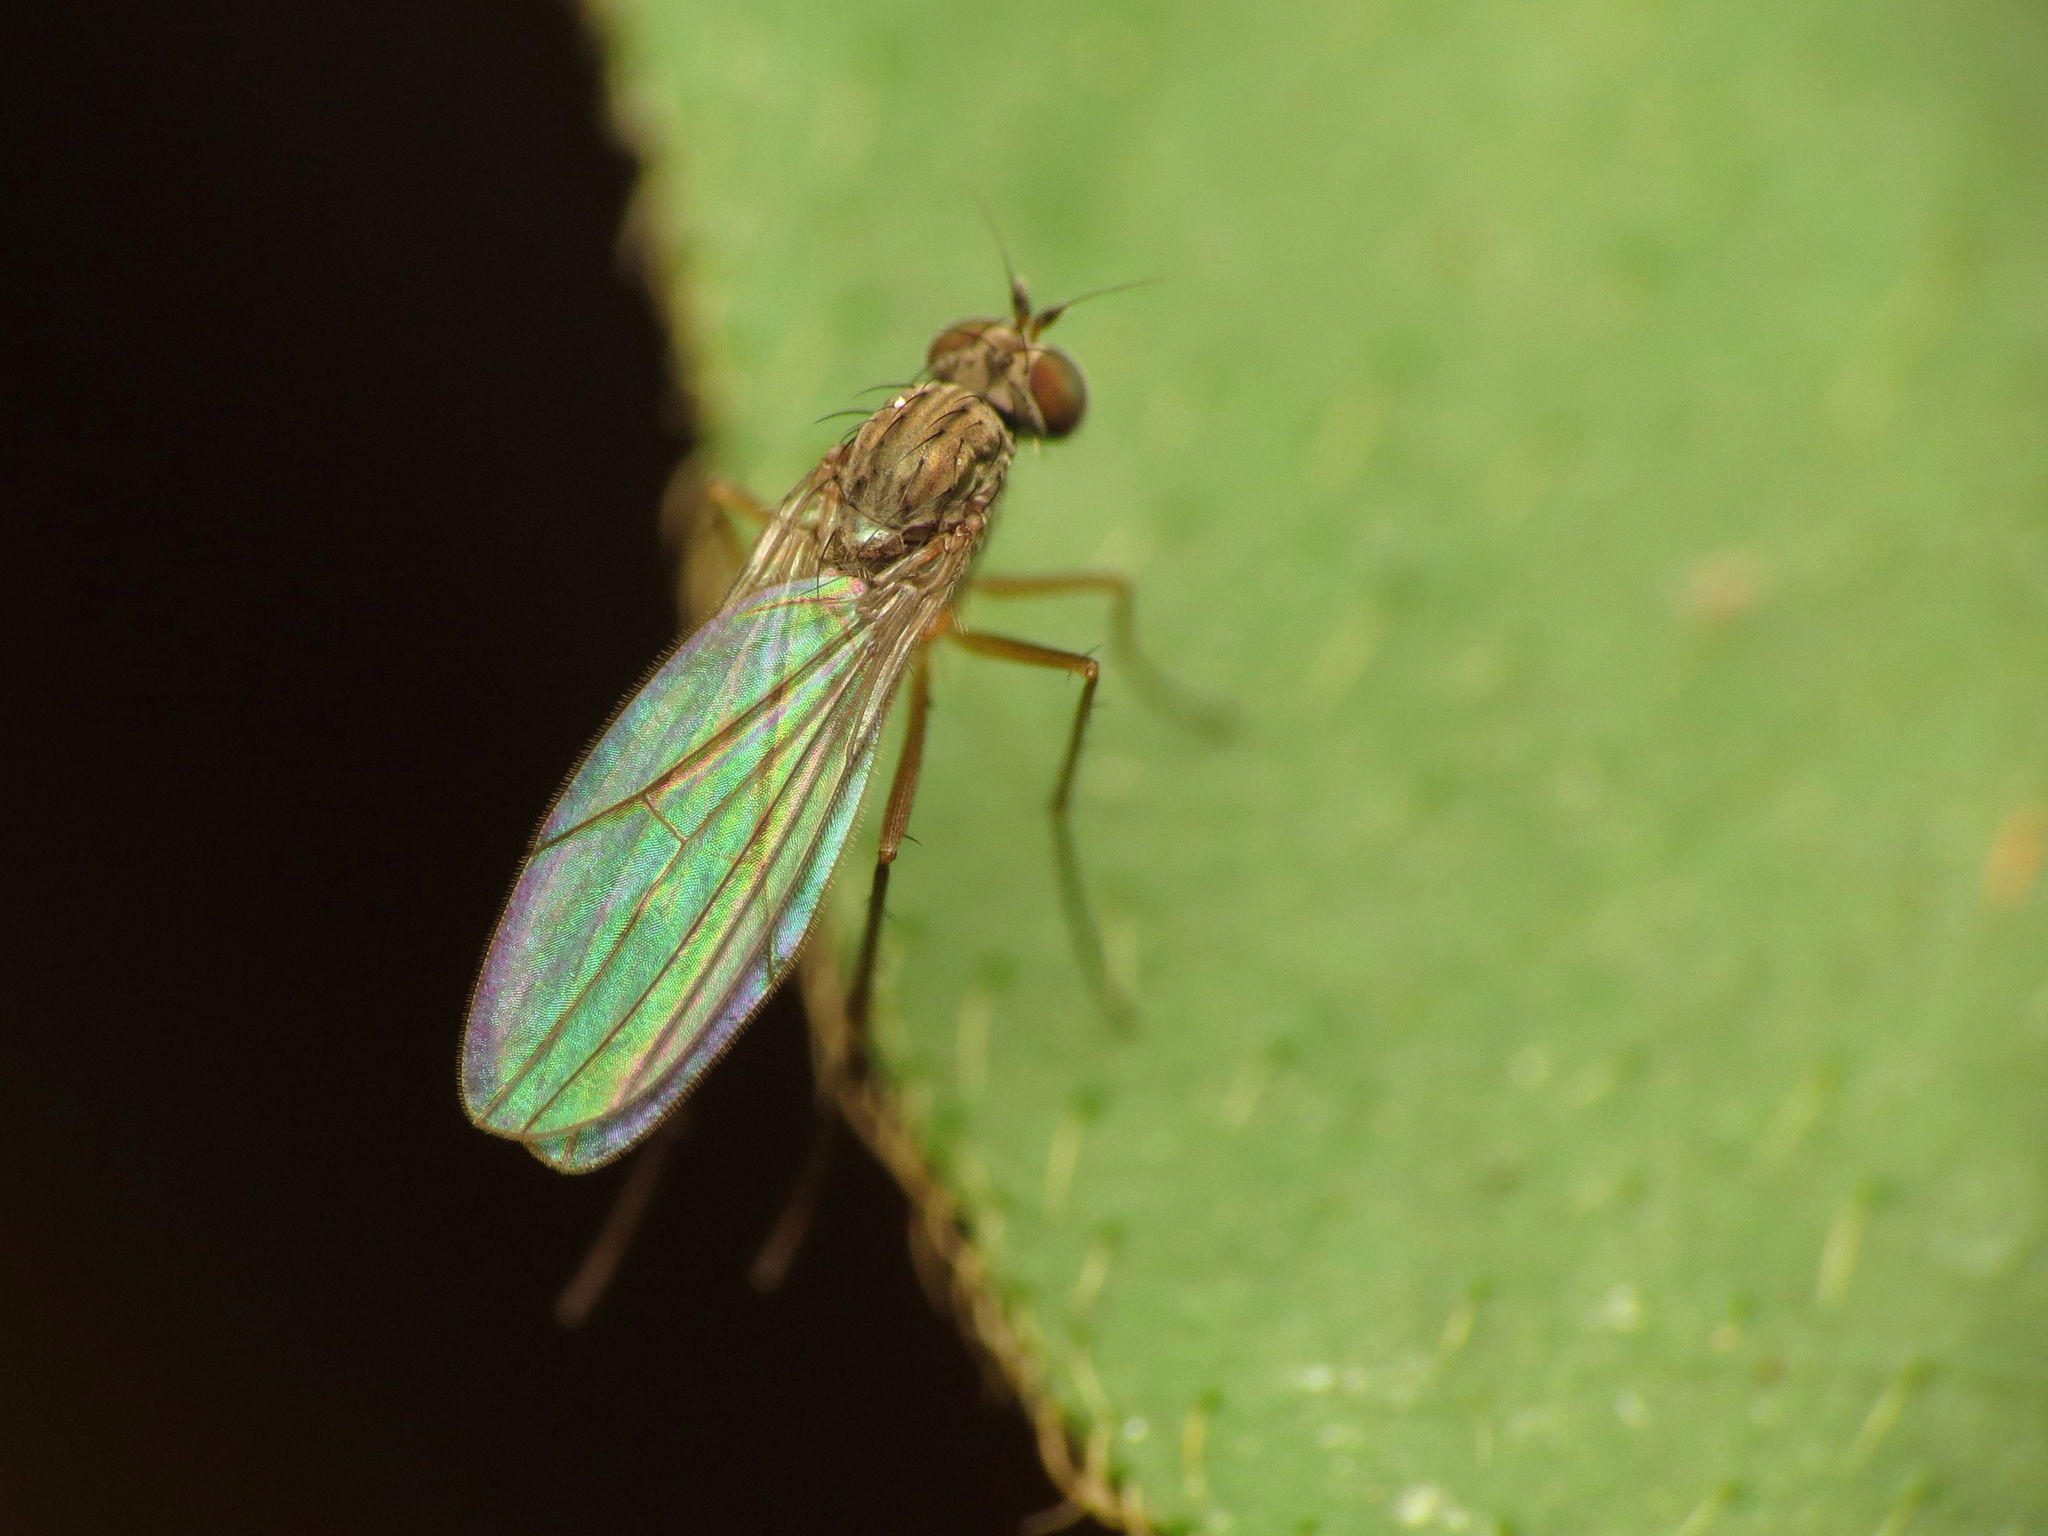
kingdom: Animalia
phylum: Arthropoda
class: Insecta
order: Diptera
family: Dolichopodidae
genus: Sympycnus
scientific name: Sympycnus lineatus
